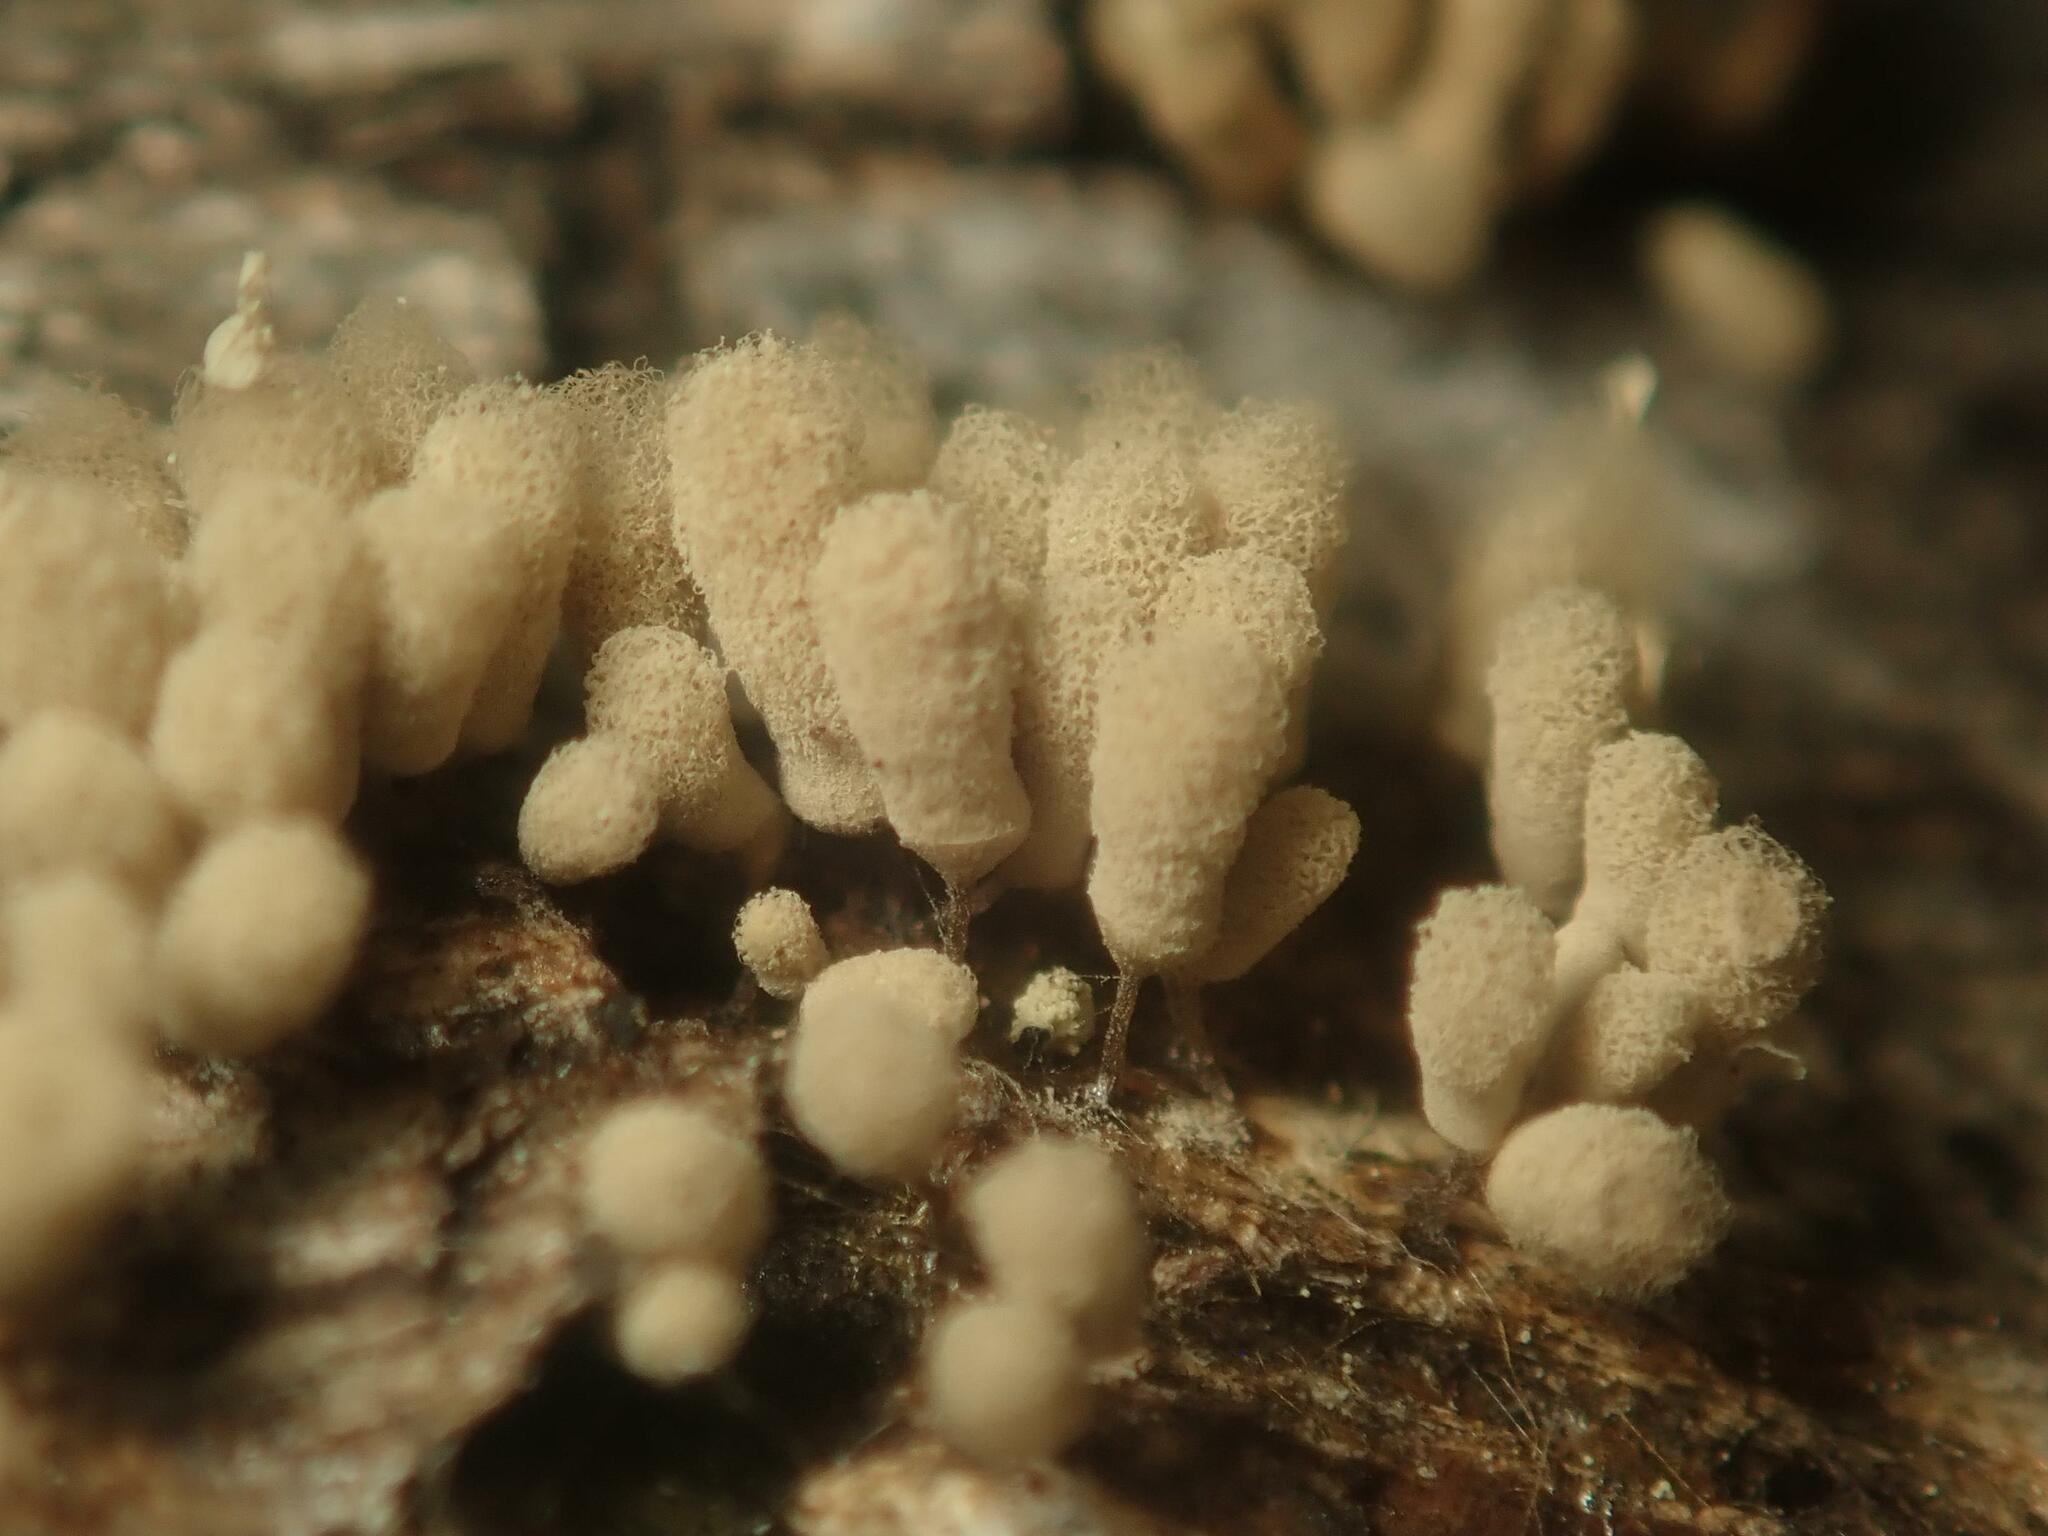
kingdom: Protozoa
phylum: Mycetozoa
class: Myxomycetes
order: Trichiales
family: Arcyriaceae
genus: Arcyria
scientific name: Arcyria cinerea
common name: White carnival candy slime mold
